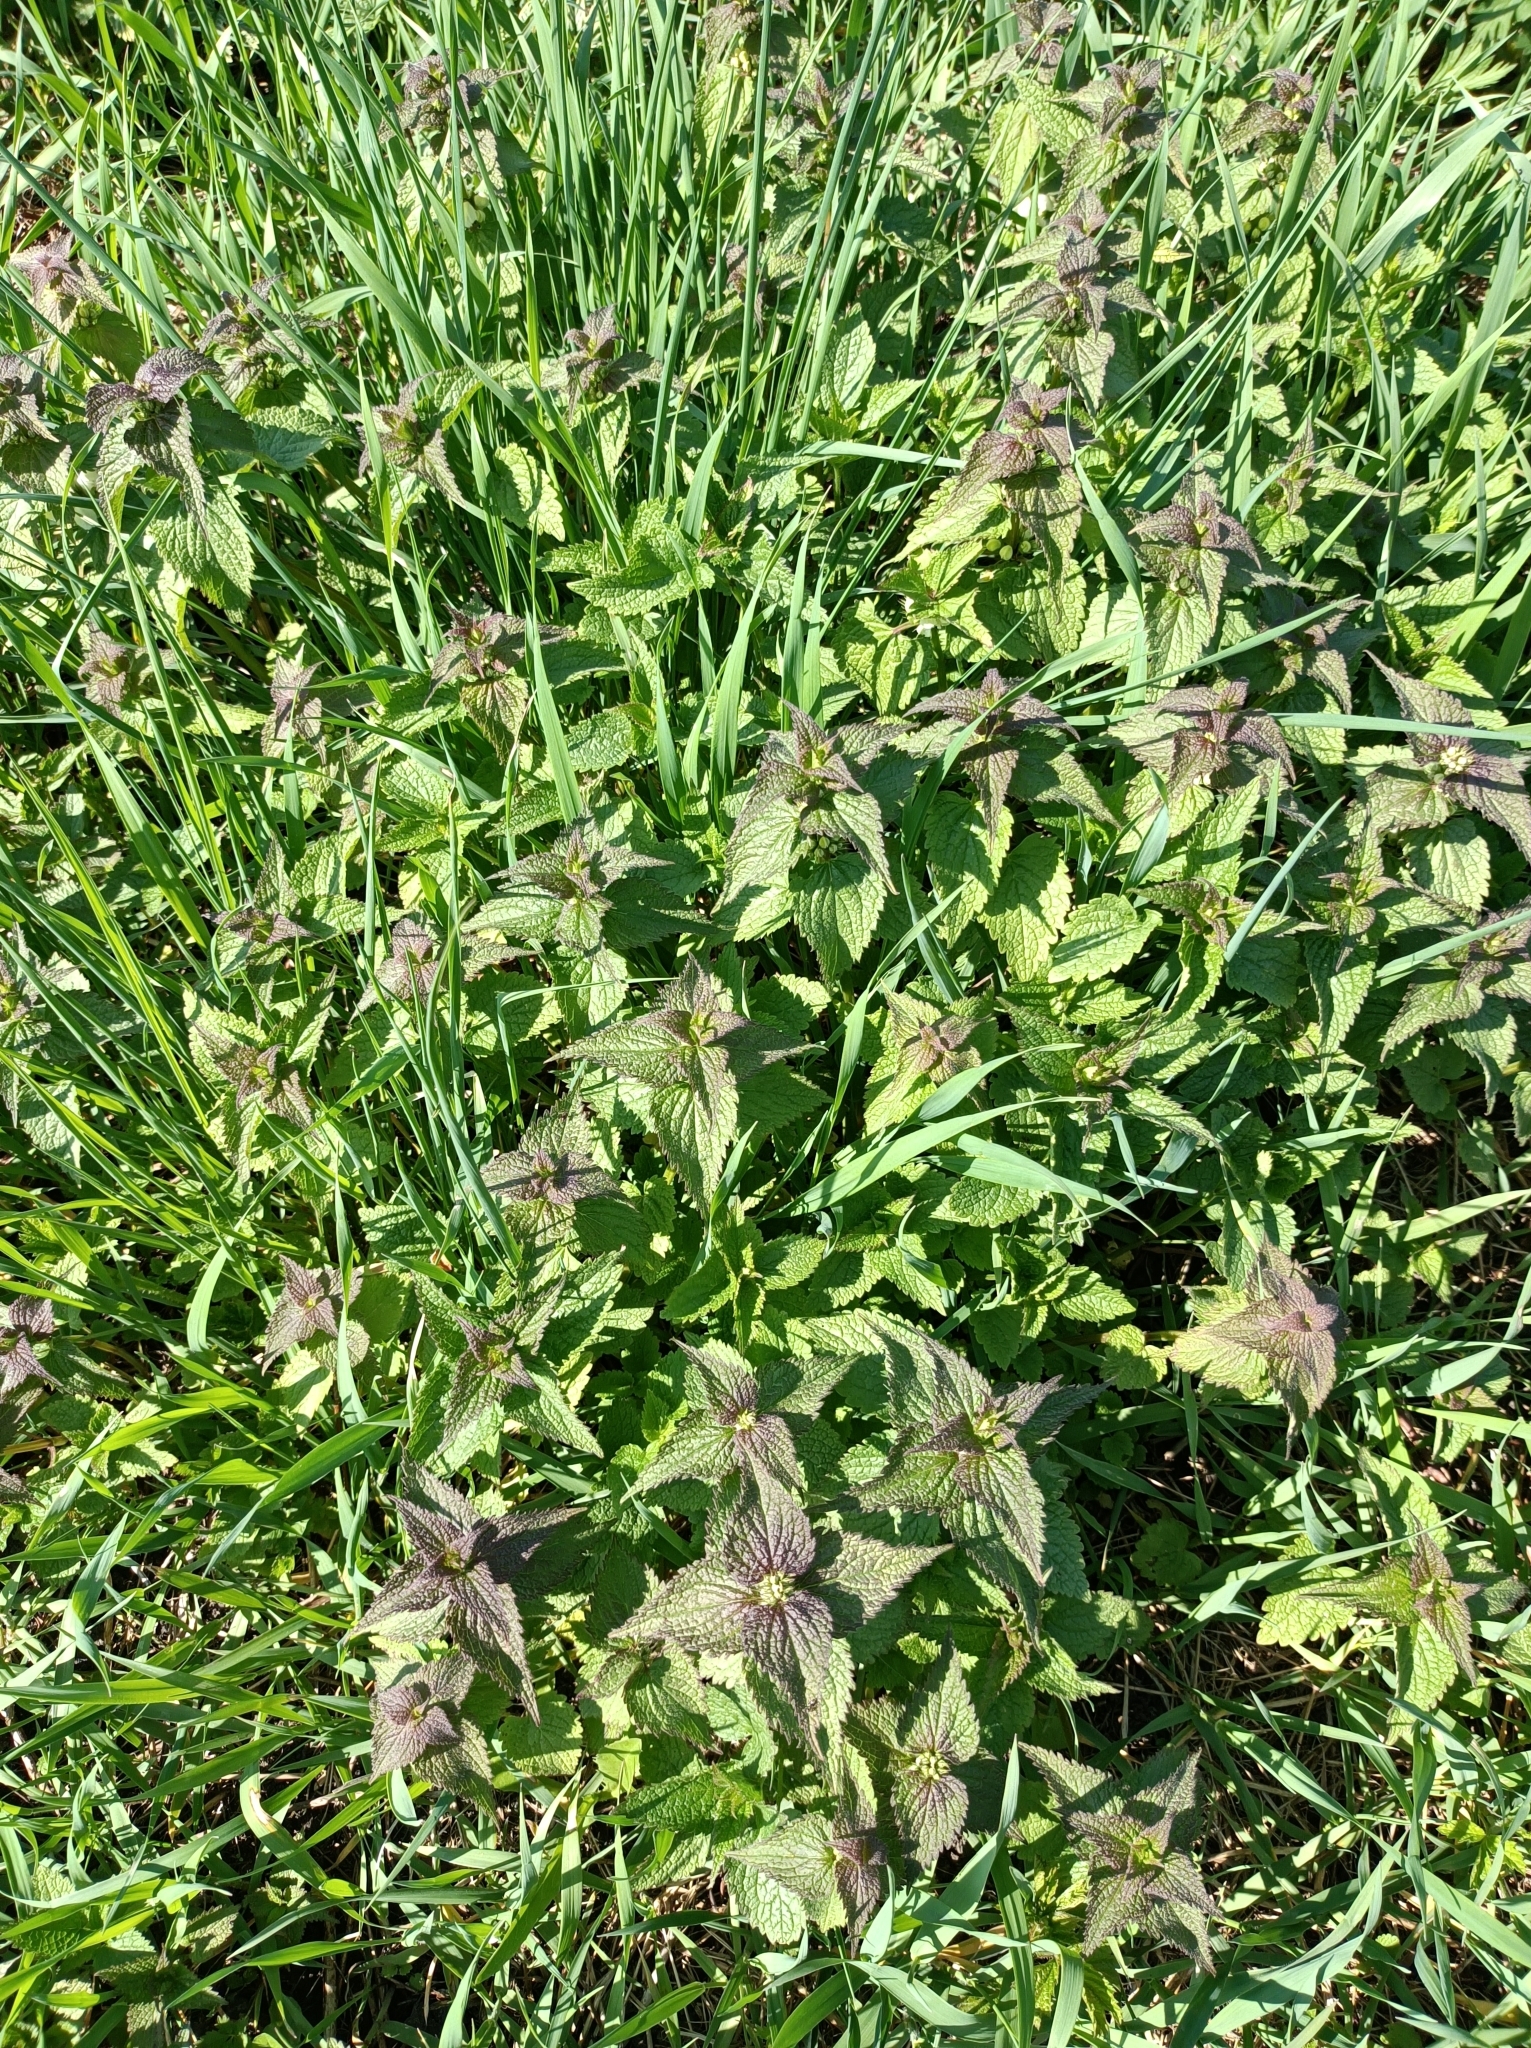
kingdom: Plantae
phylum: Tracheophyta
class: Magnoliopsida
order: Lamiales
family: Lamiaceae
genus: Lamium
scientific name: Lamium album
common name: White dead-nettle
